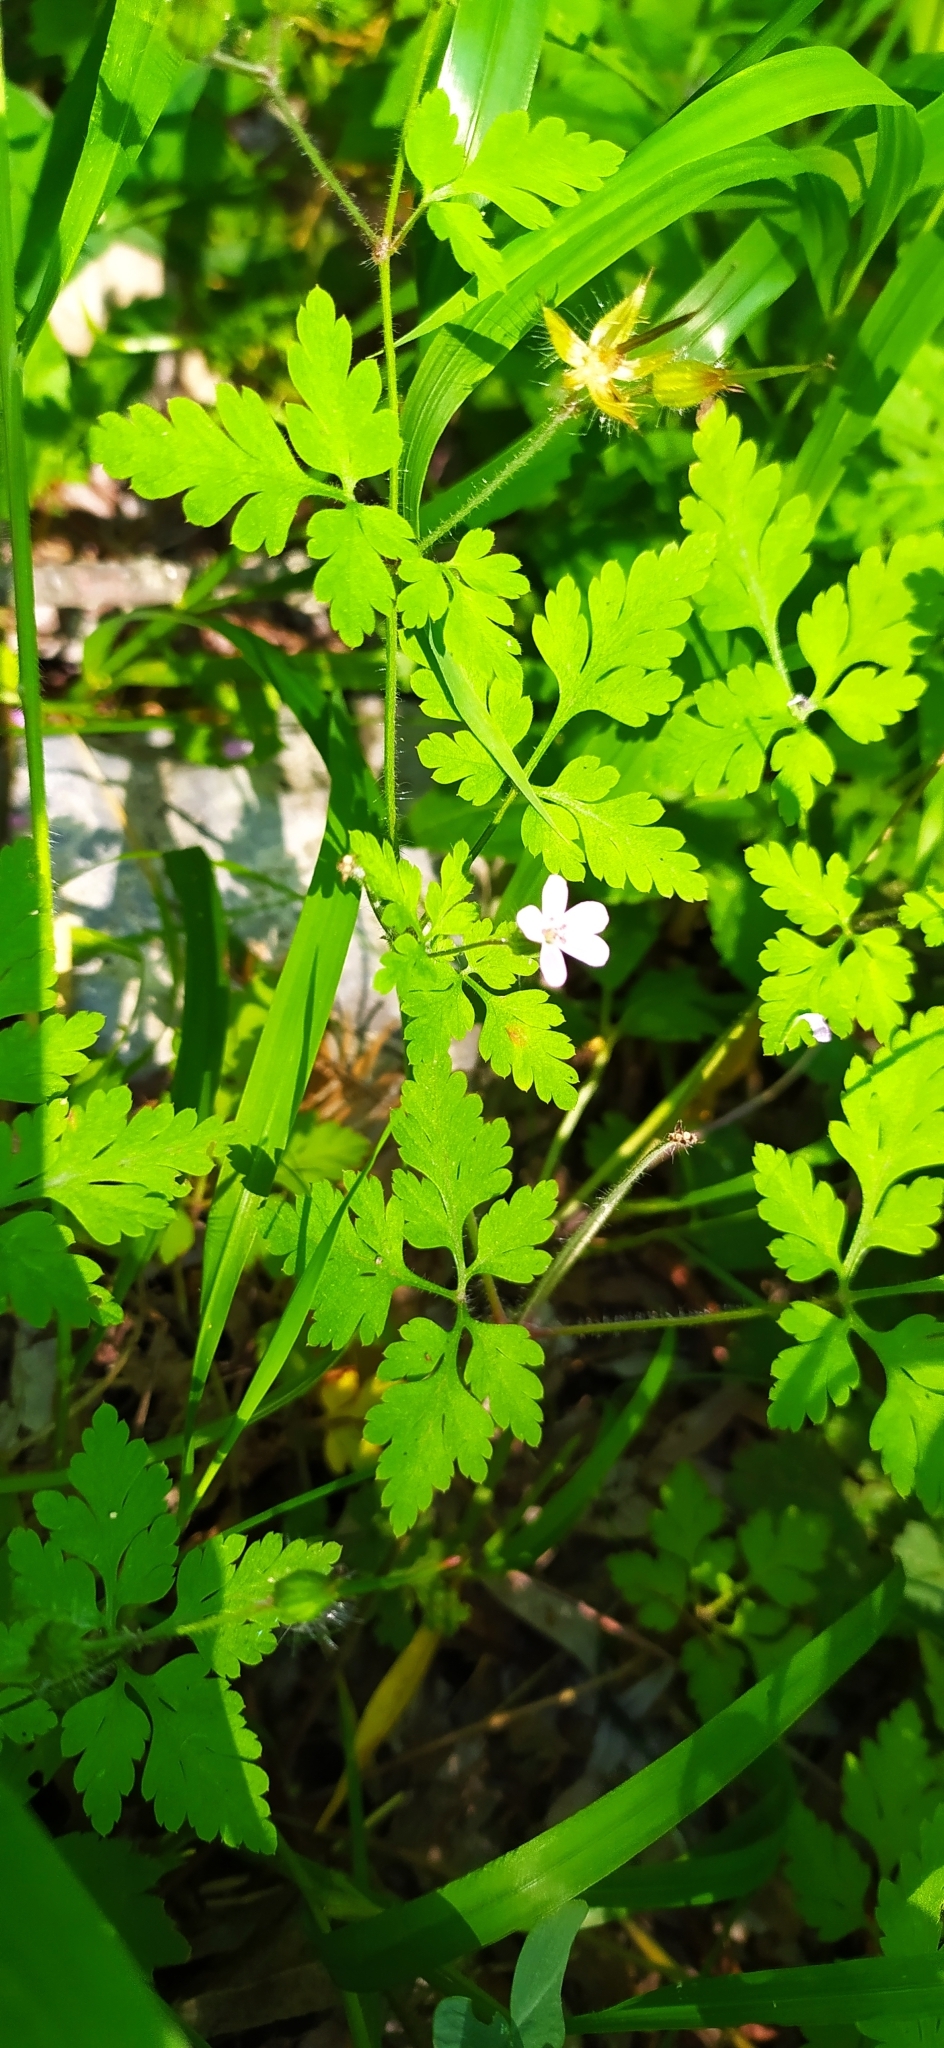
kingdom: Plantae
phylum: Tracheophyta
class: Magnoliopsida
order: Geraniales
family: Geraniaceae
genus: Geranium
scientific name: Geranium robertianum
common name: Herb-robert
